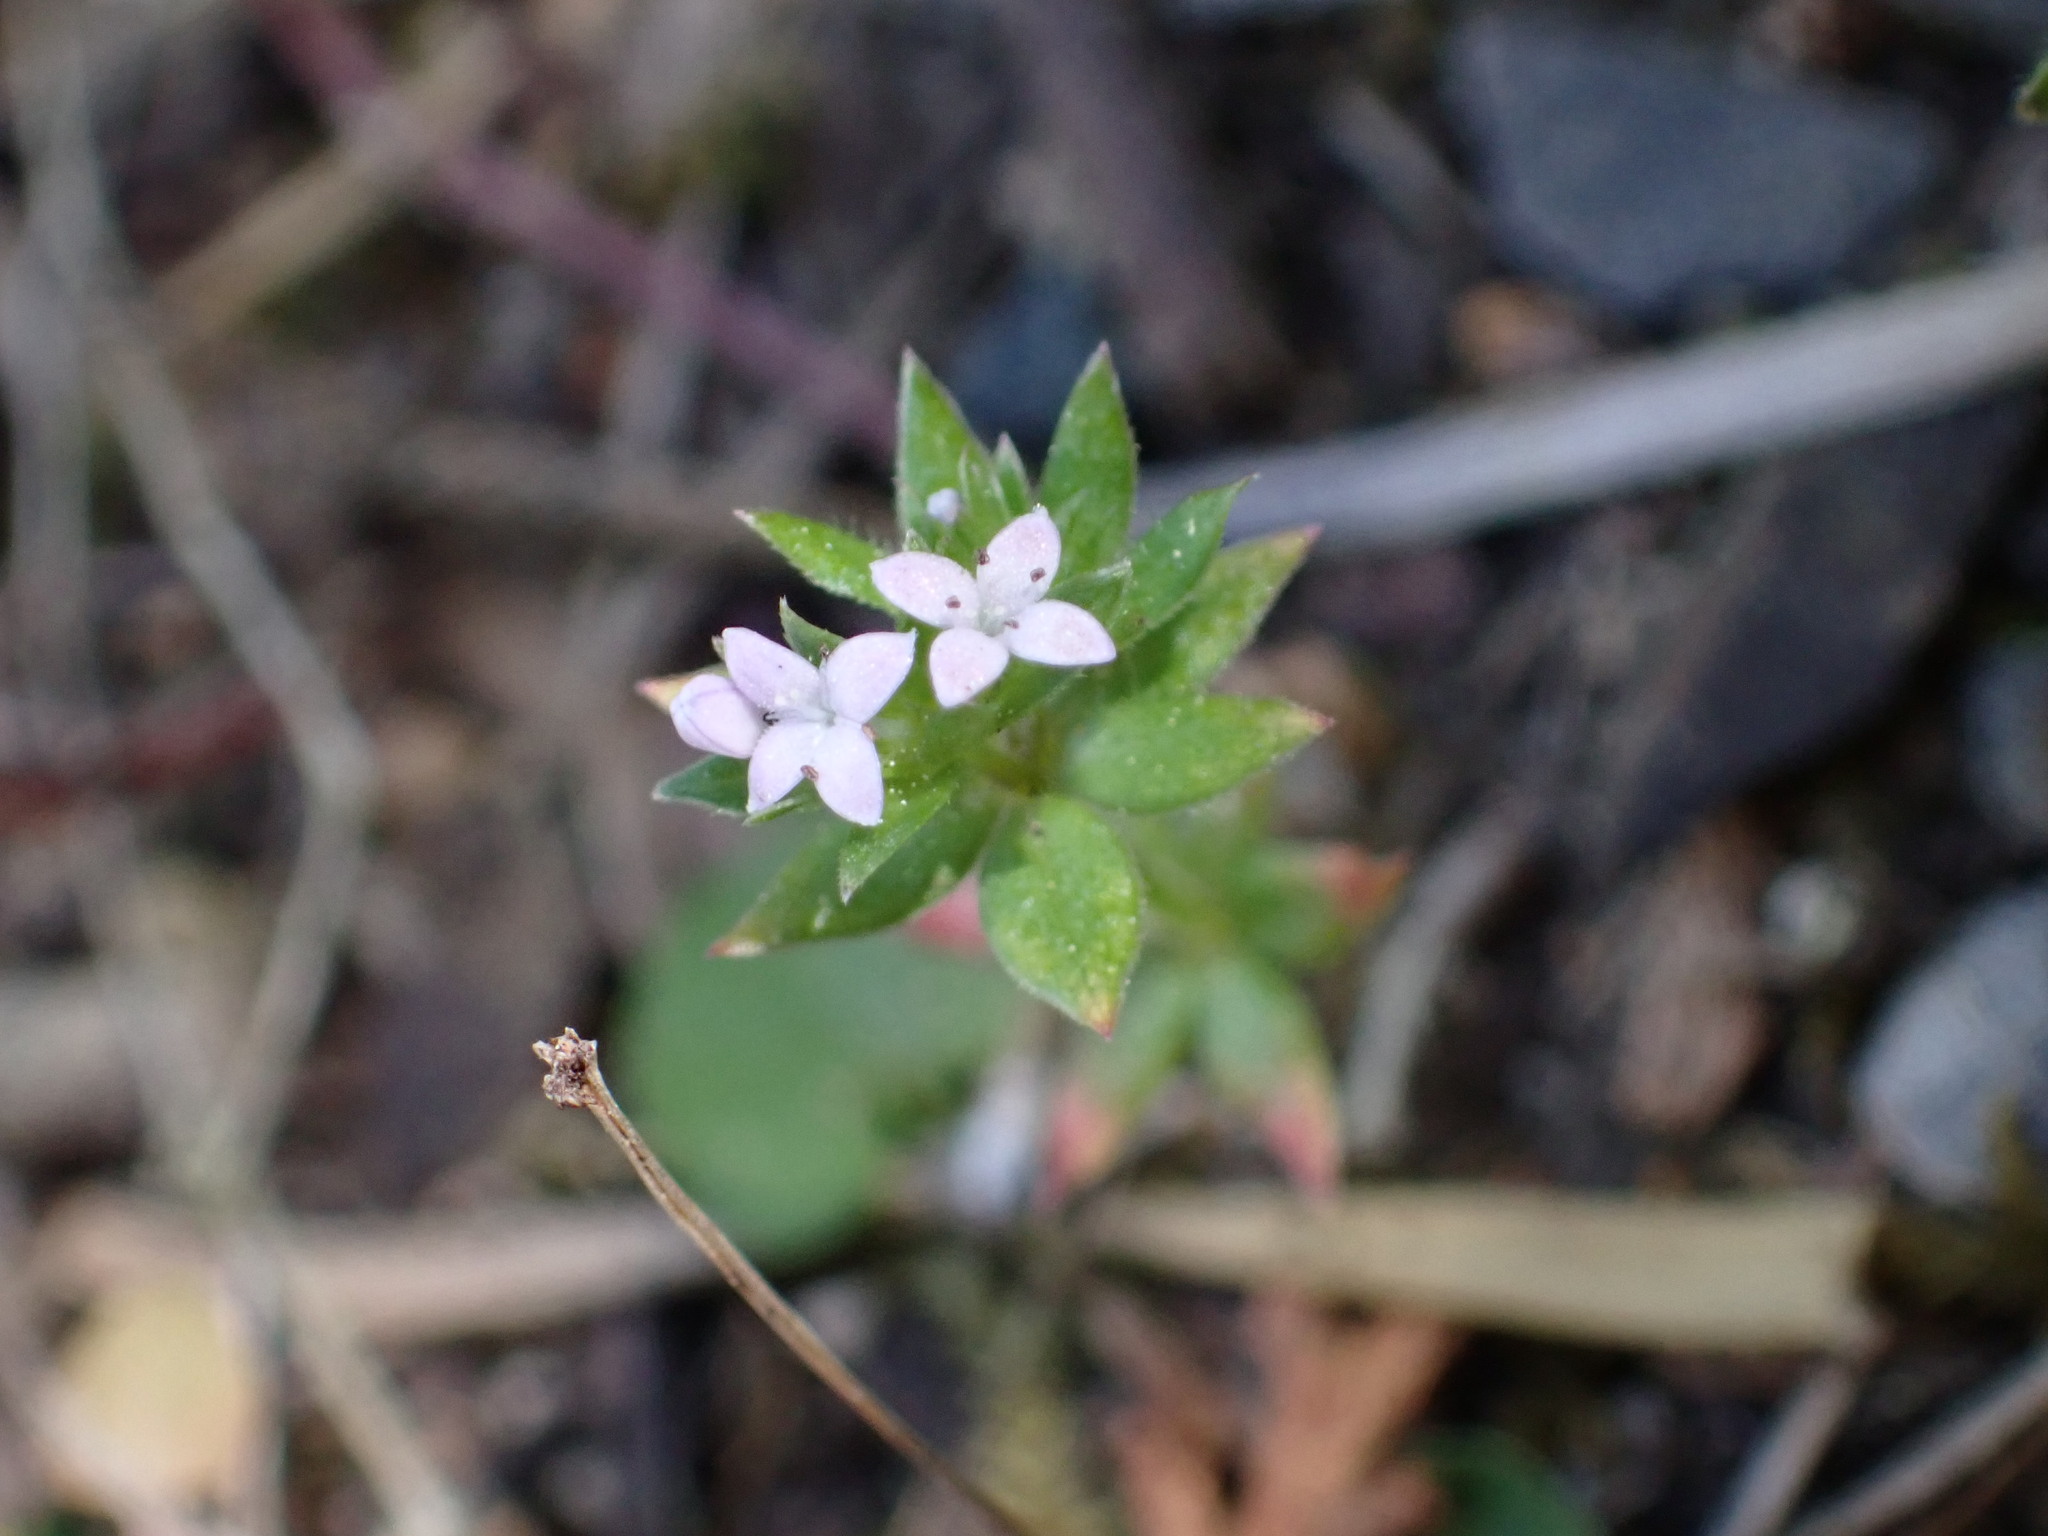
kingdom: Plantae
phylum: Tracheophyta
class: Magnoliopsida
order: Gentianales
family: Rubiaceae
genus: Sherardia
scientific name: Sherardia arvensis
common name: Field madder
